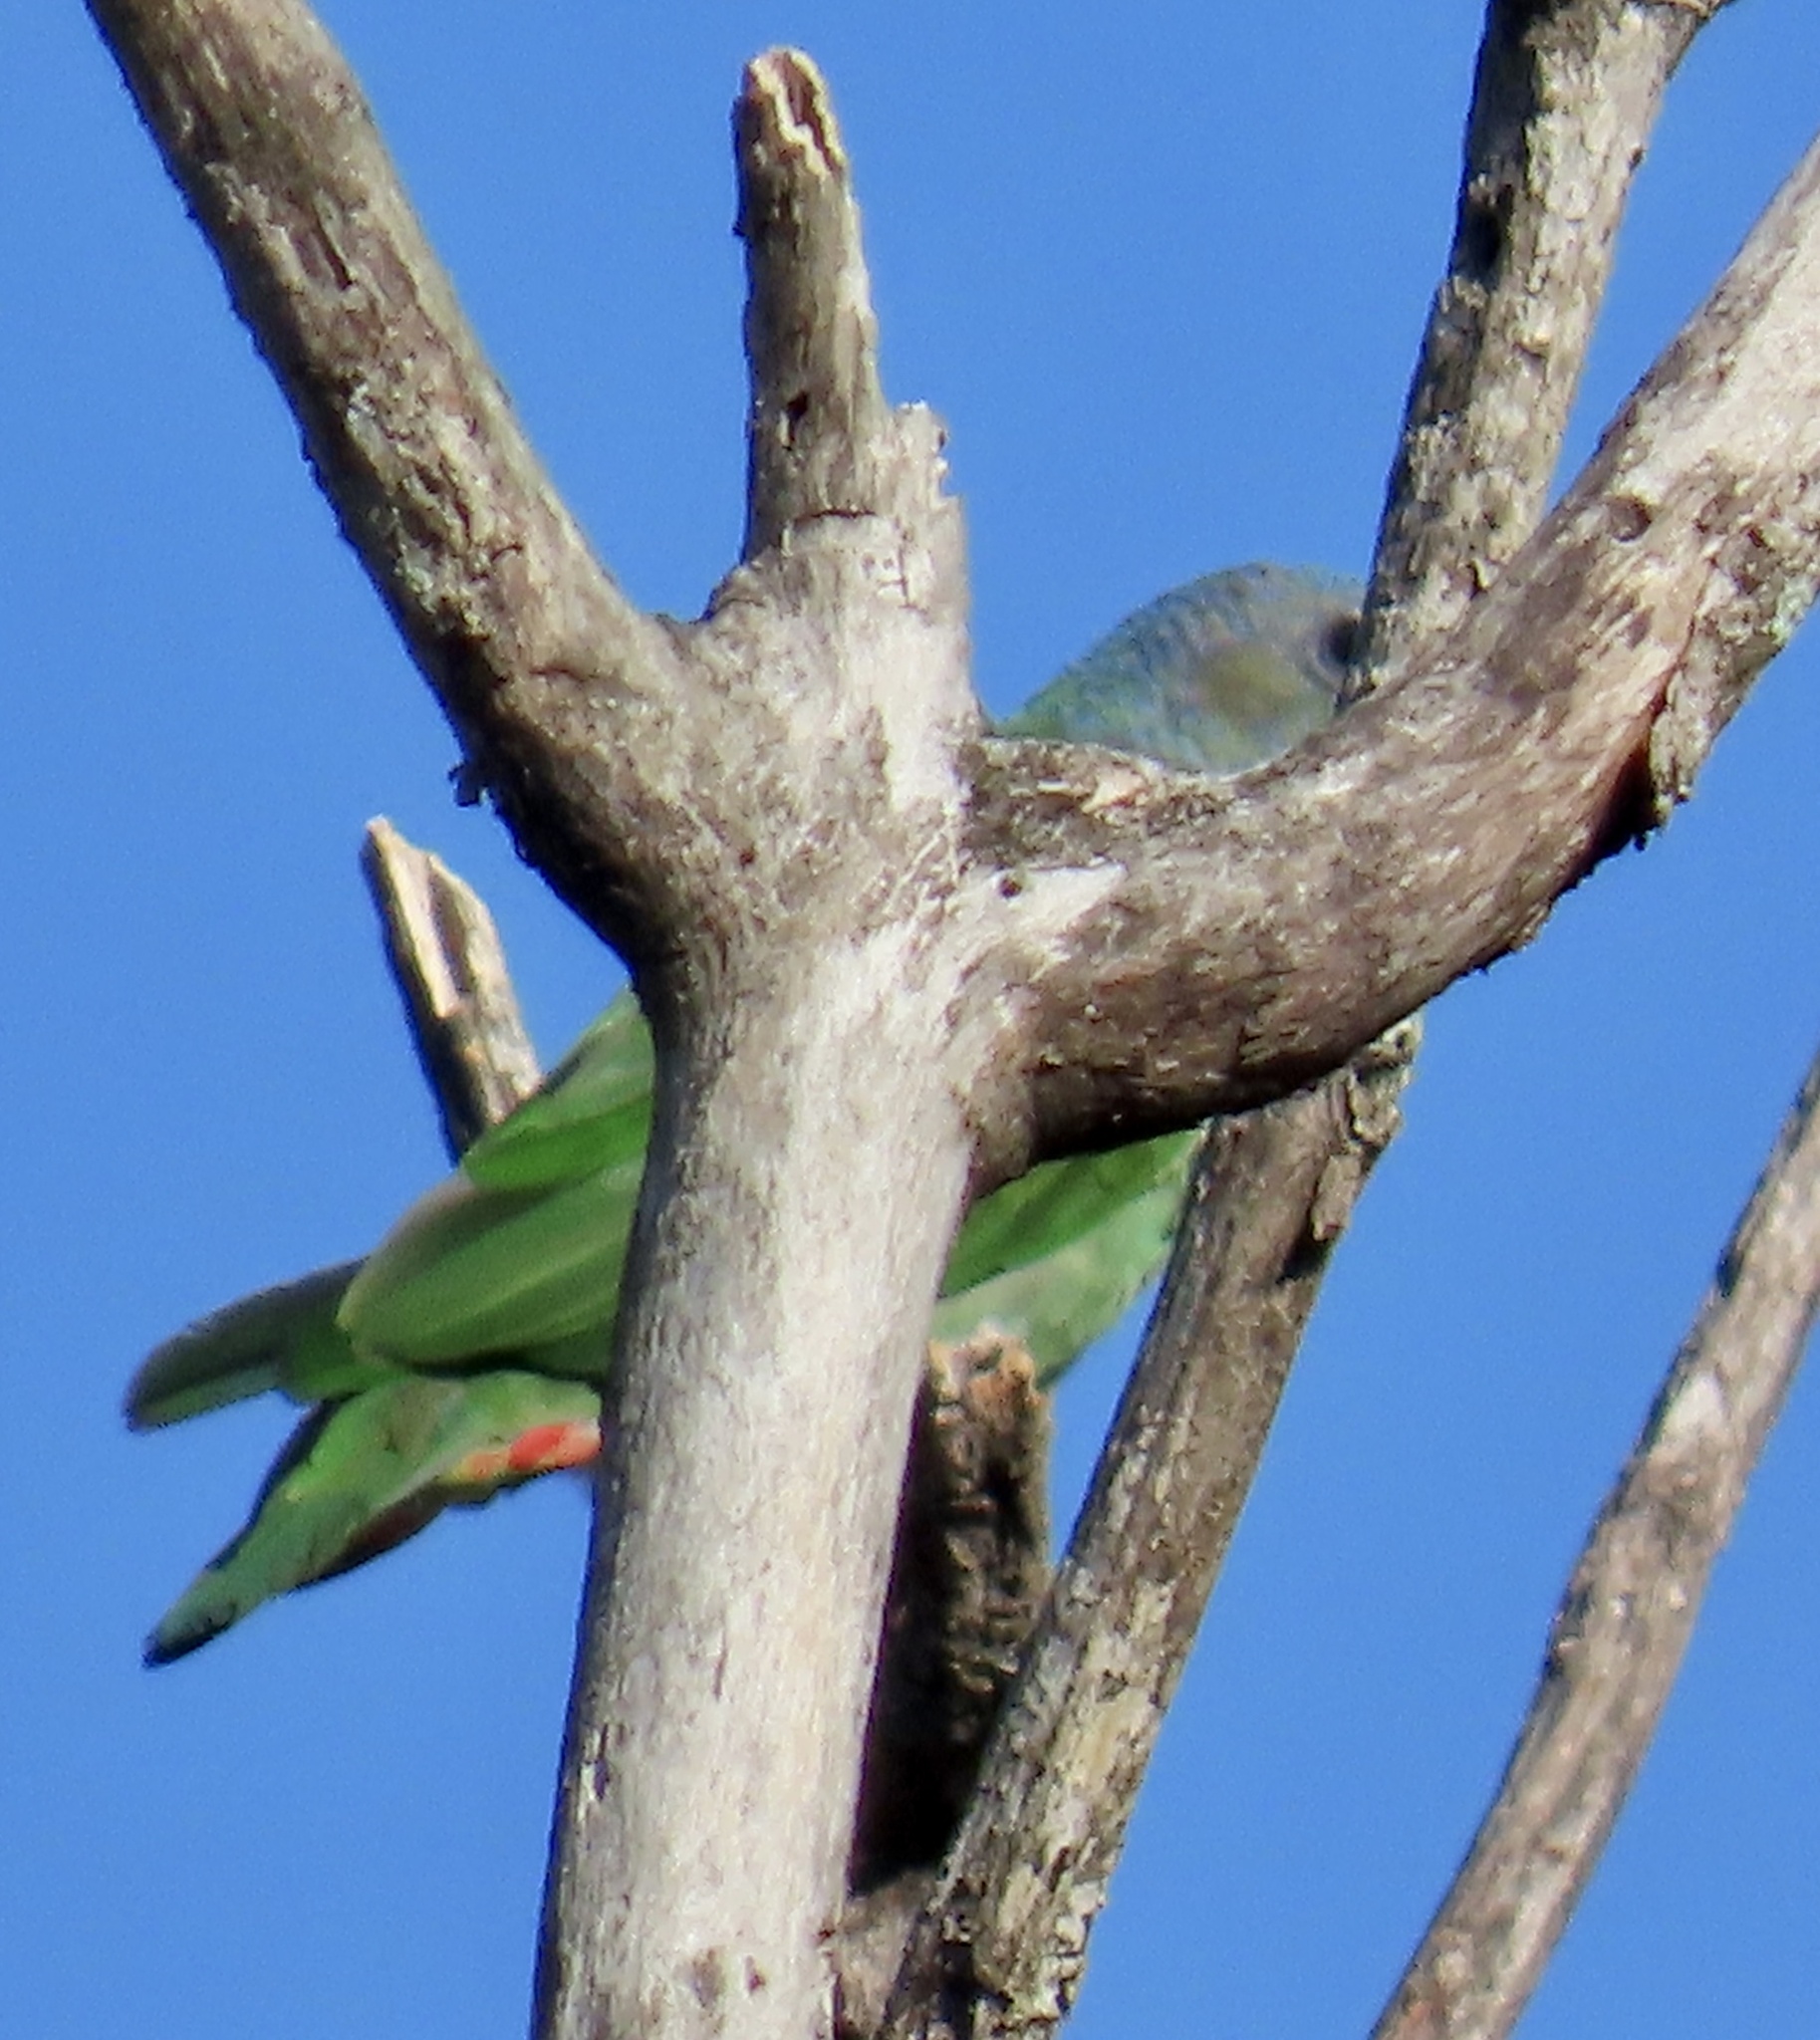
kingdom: Animalia
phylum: Chordata
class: Aves
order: Psittaciformes
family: Psittacidae
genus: Pionus
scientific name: Pionus menstruus
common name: Blue-headed parrot
